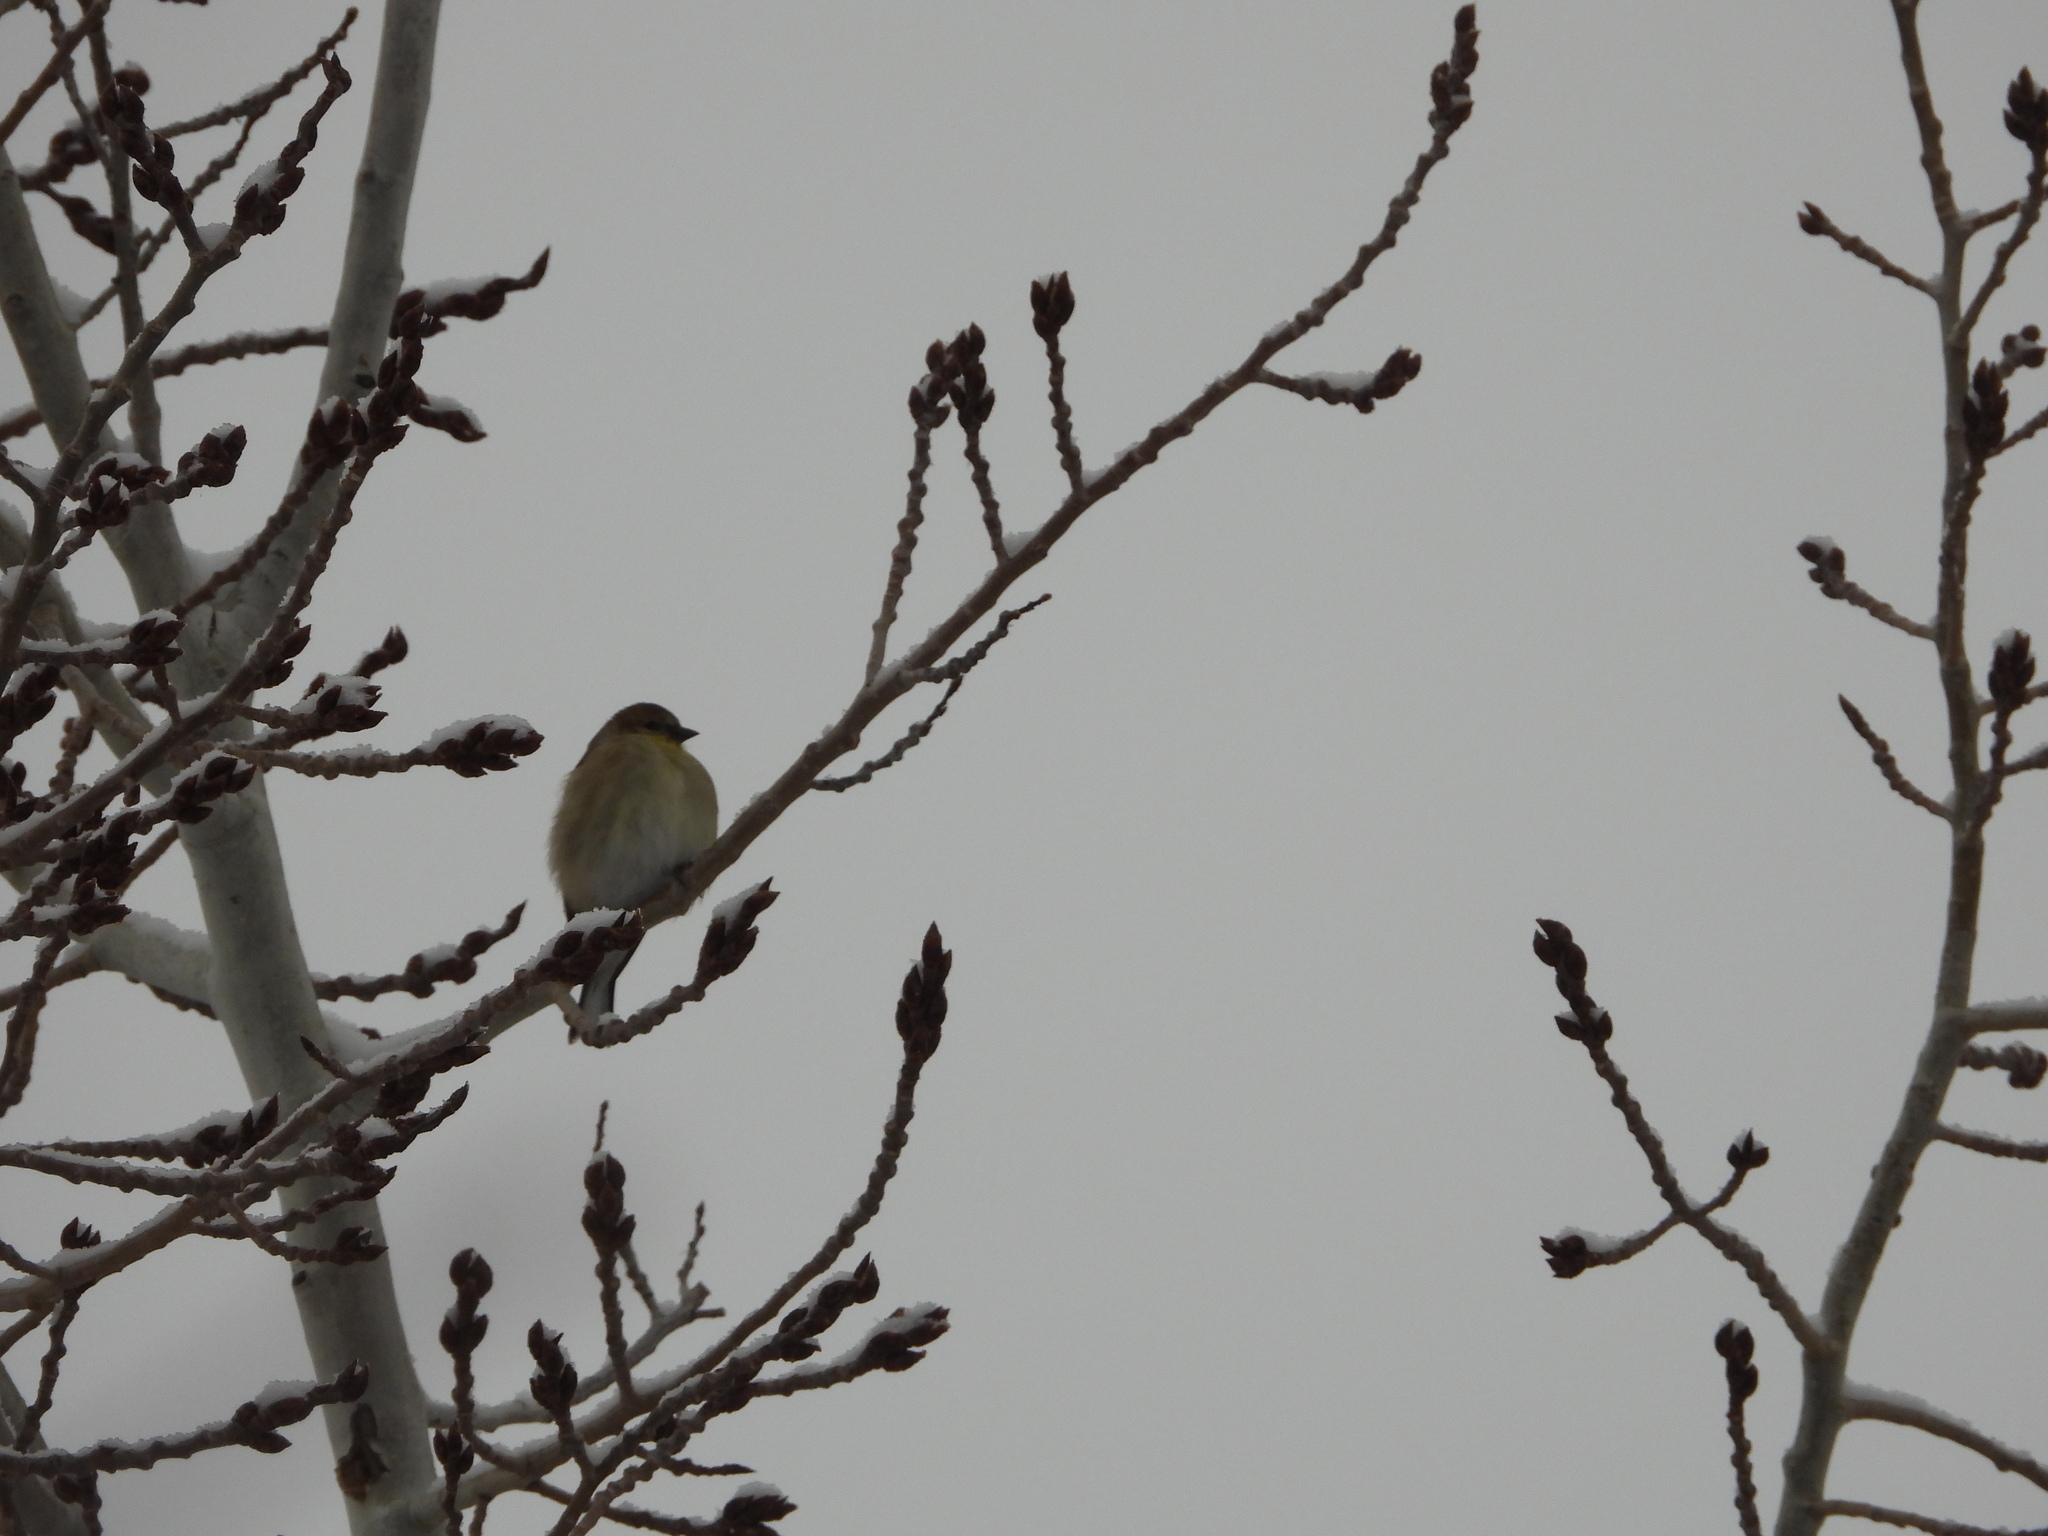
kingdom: Animalia
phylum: Chordata
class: Aves
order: Passeriformes
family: Fringillidae
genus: Spinus
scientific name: Spinus tristis
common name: American goldfinch
